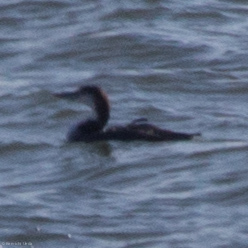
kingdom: Animalia
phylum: Chordata
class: Aves
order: Gaviiformes
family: Gaviidae
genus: Gavia
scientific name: Gavia immer
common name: Common loon
